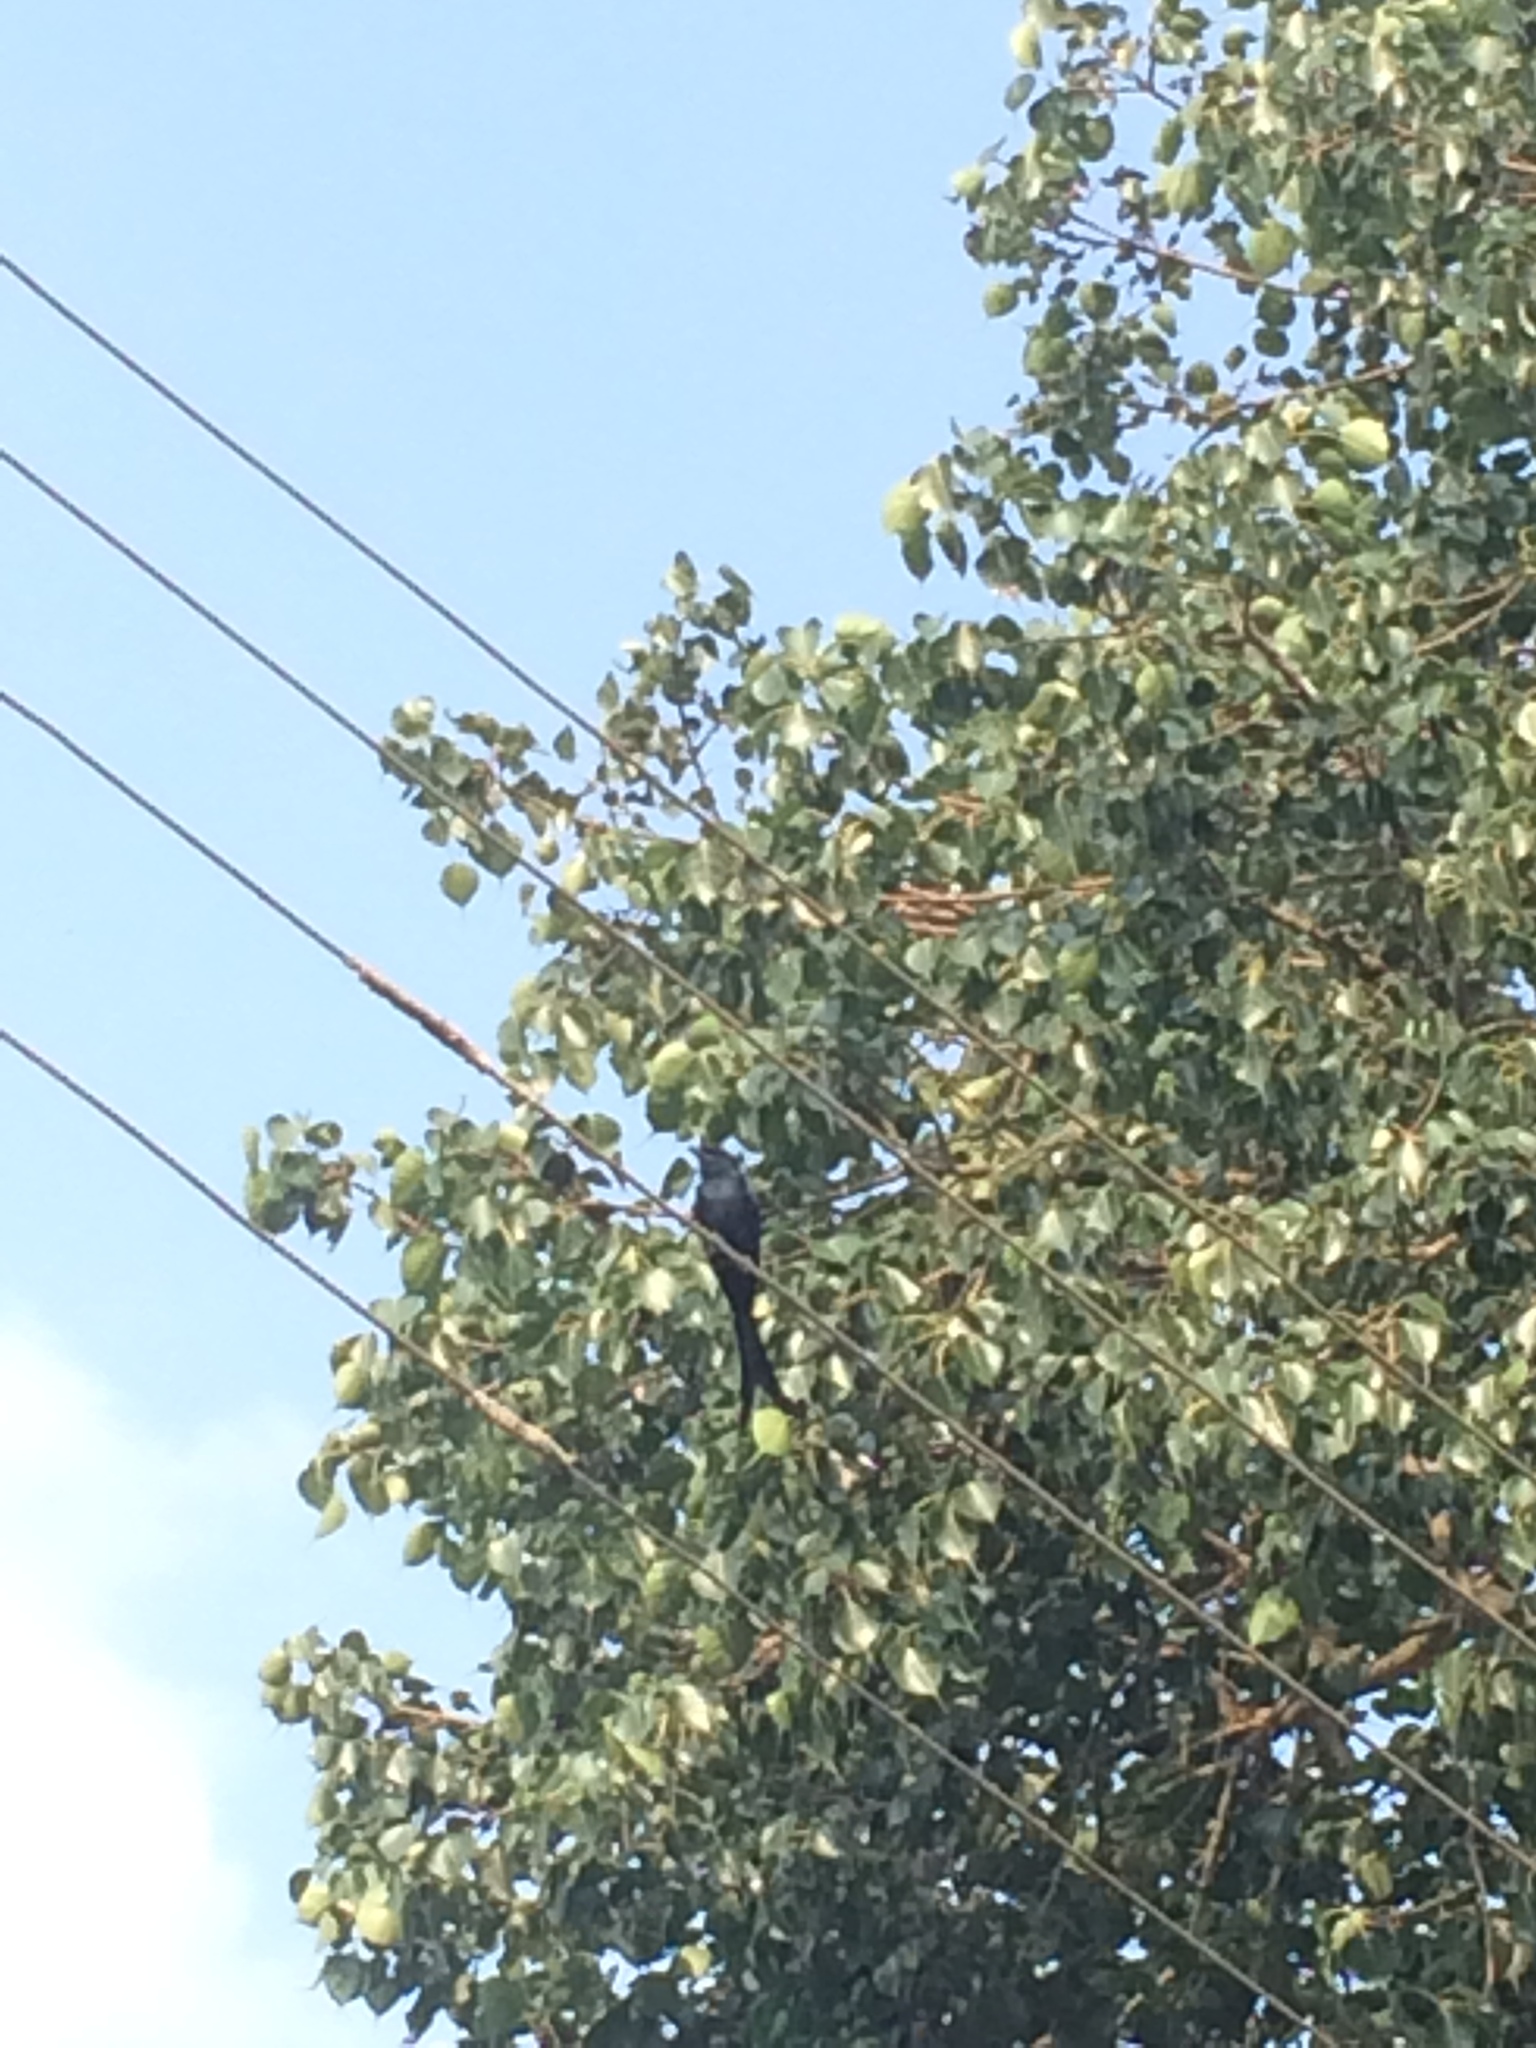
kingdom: Animalia
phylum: Chordata
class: Aves
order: Passeriformes
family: Dicruridae
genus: Dicrurus
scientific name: Dicrurus macrocercus
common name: Black drongo
